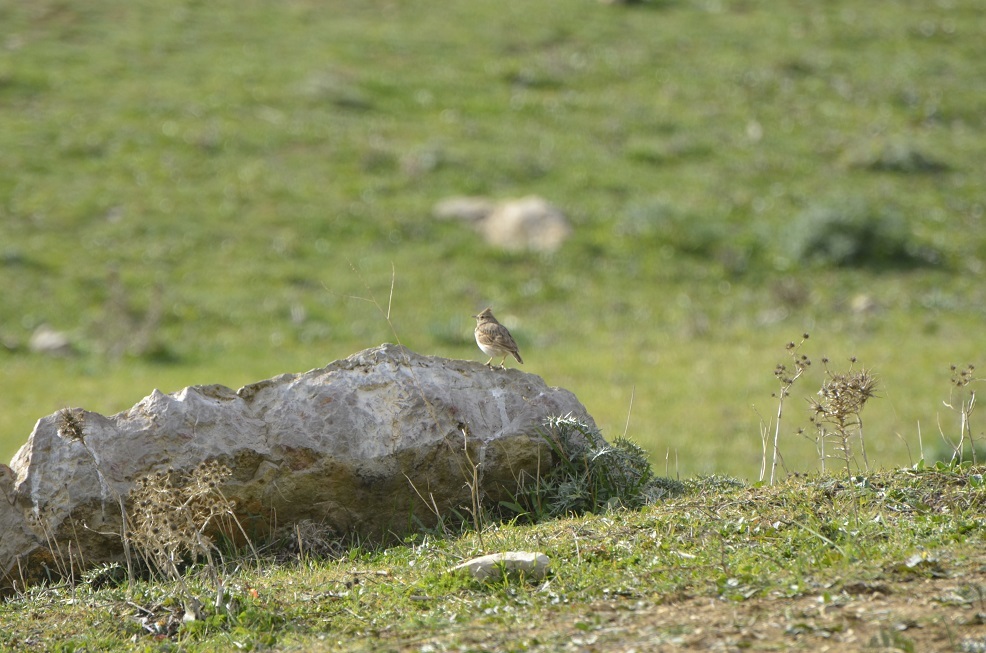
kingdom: Animalia
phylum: Chordata
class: Aves
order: Passeriformes
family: Alaudidae
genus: Galerida
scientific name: Galerida theklae
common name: Thekla lark
